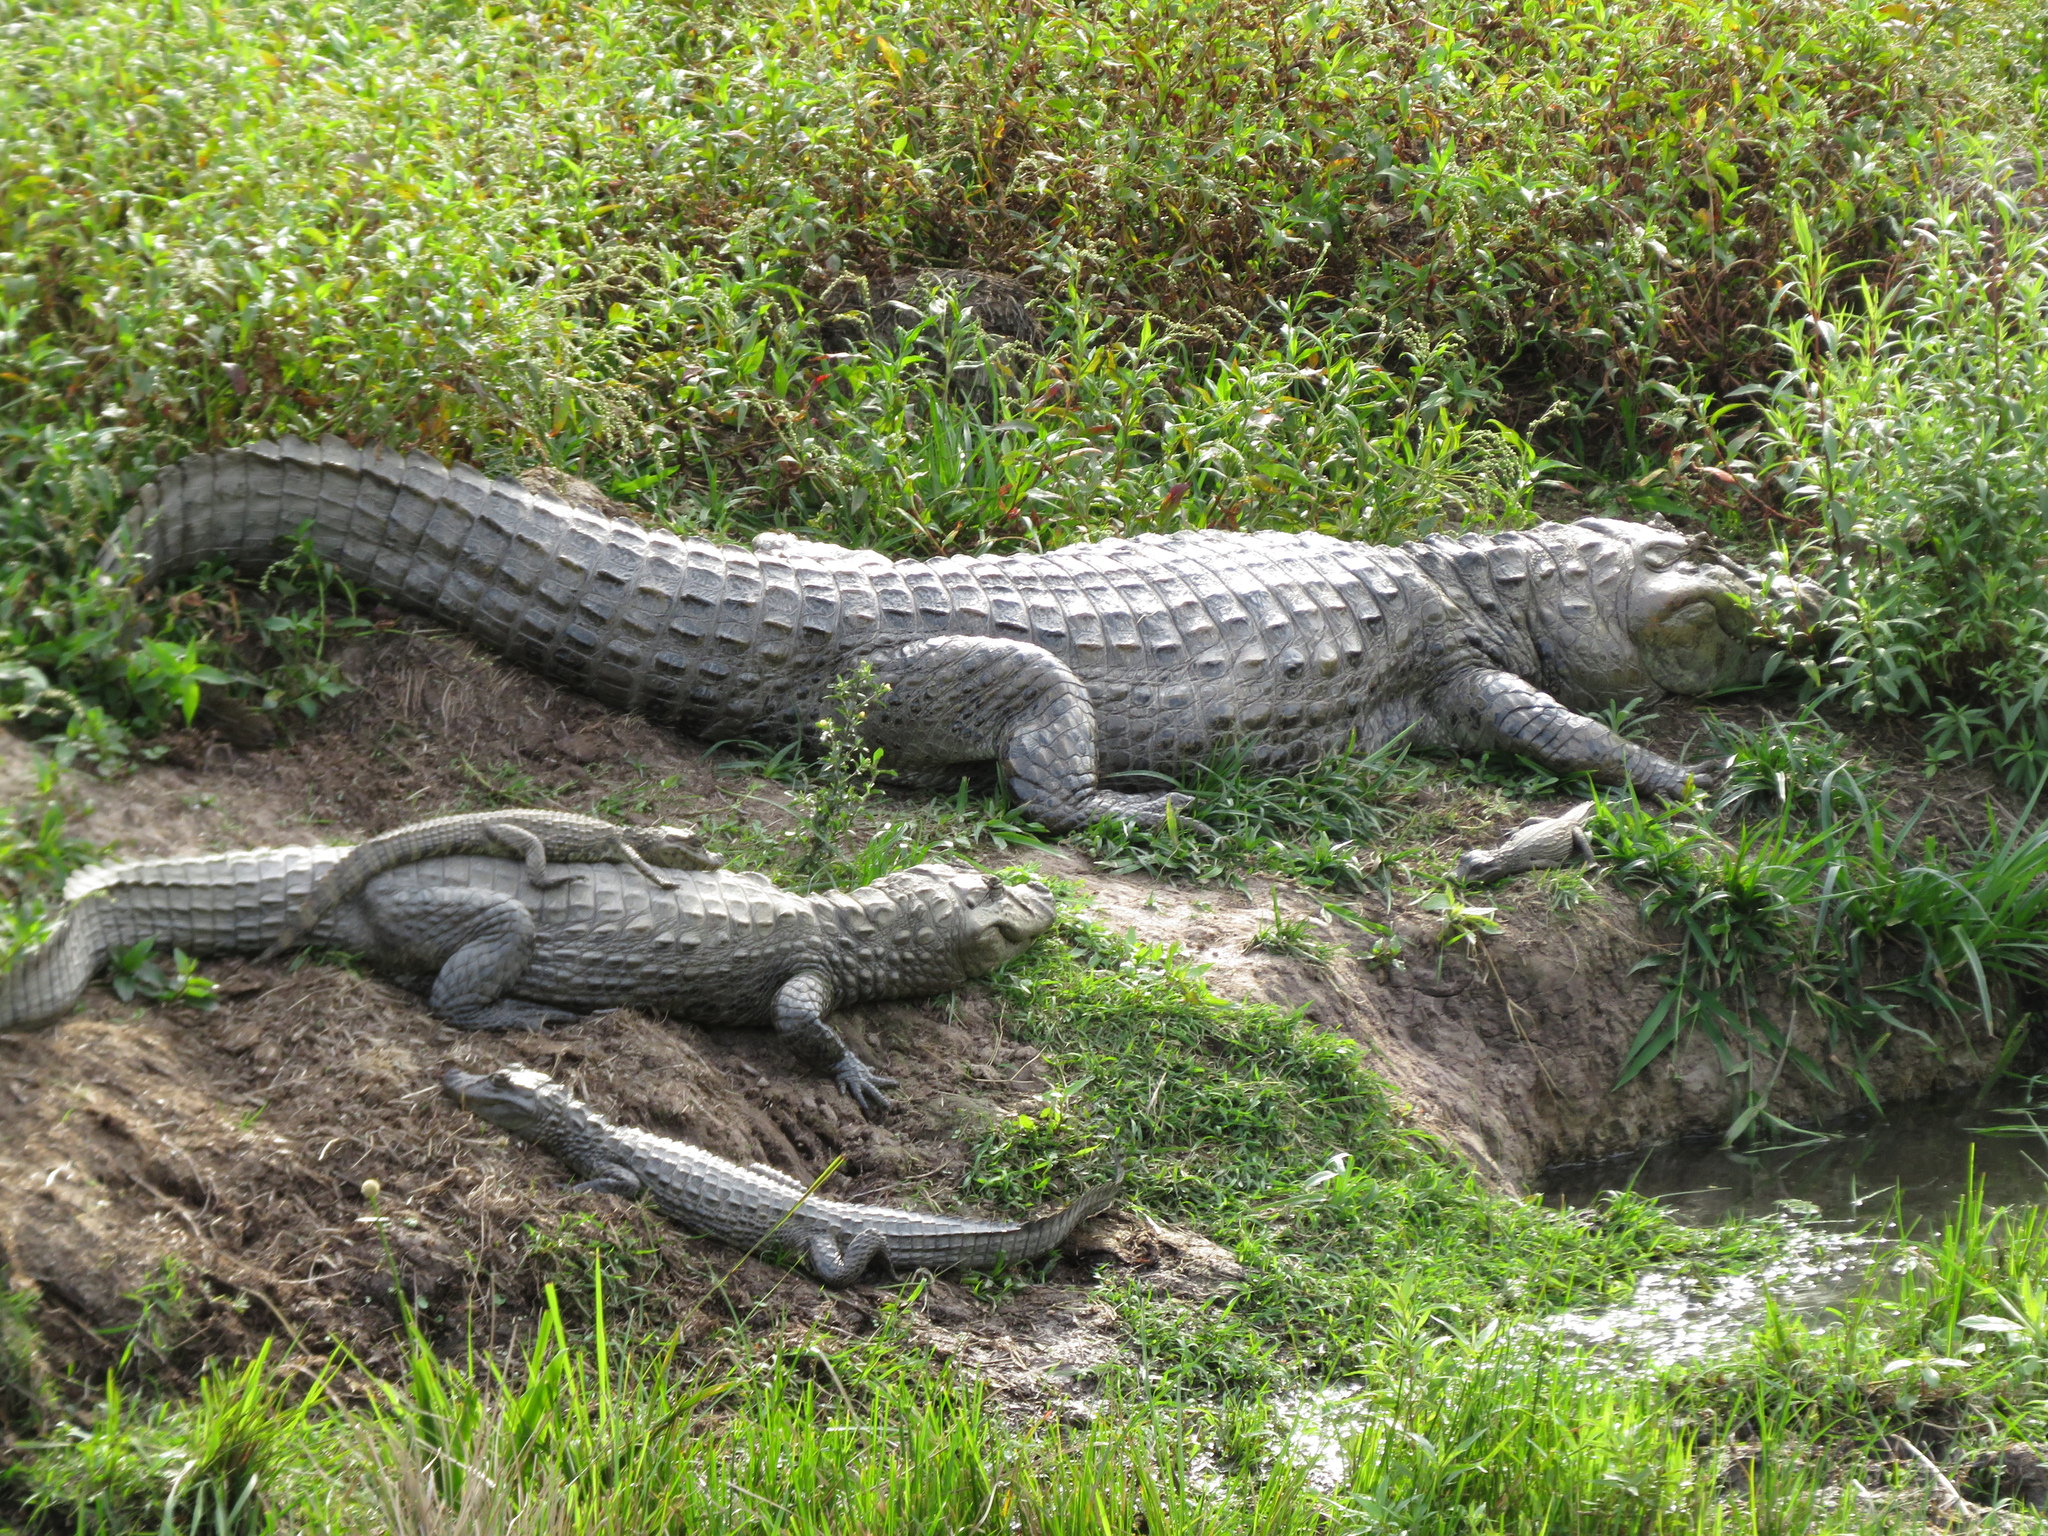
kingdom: Animalia
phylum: Chordata
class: Crocodylia
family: Alligatoridae
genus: Caiman
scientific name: Caiman latirostris
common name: Broad-snouted caiman
